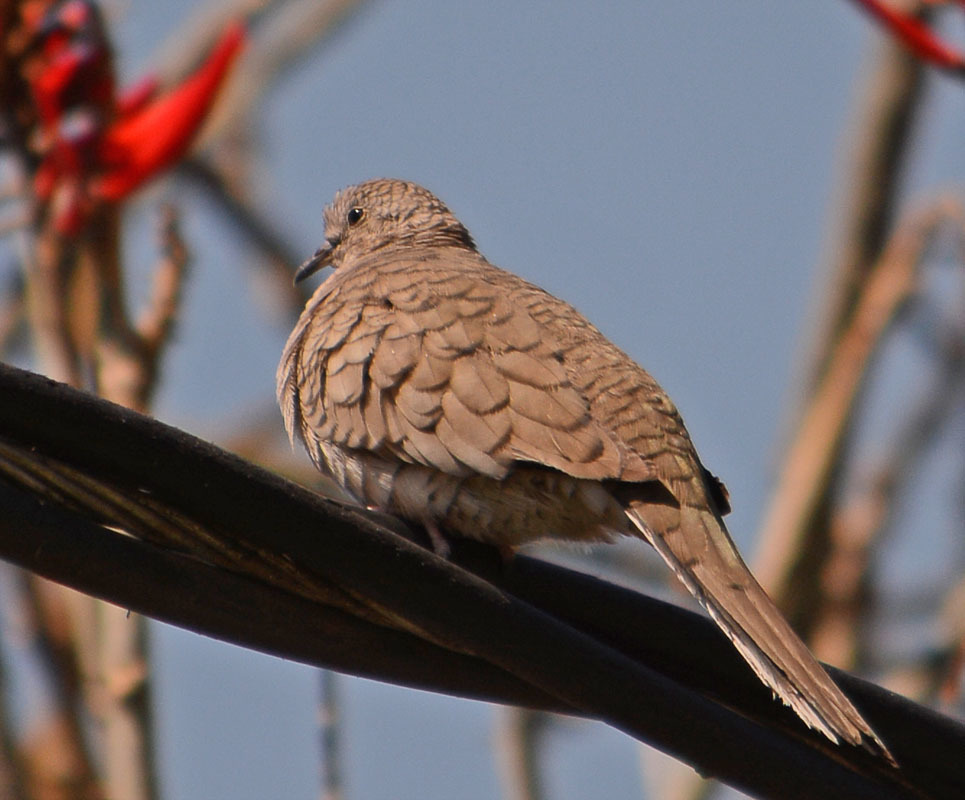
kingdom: Animalia
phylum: Chordata
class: Aves
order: Columbiformes
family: Columbidae
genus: Columbina
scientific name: Columbina inca
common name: Inca dove
